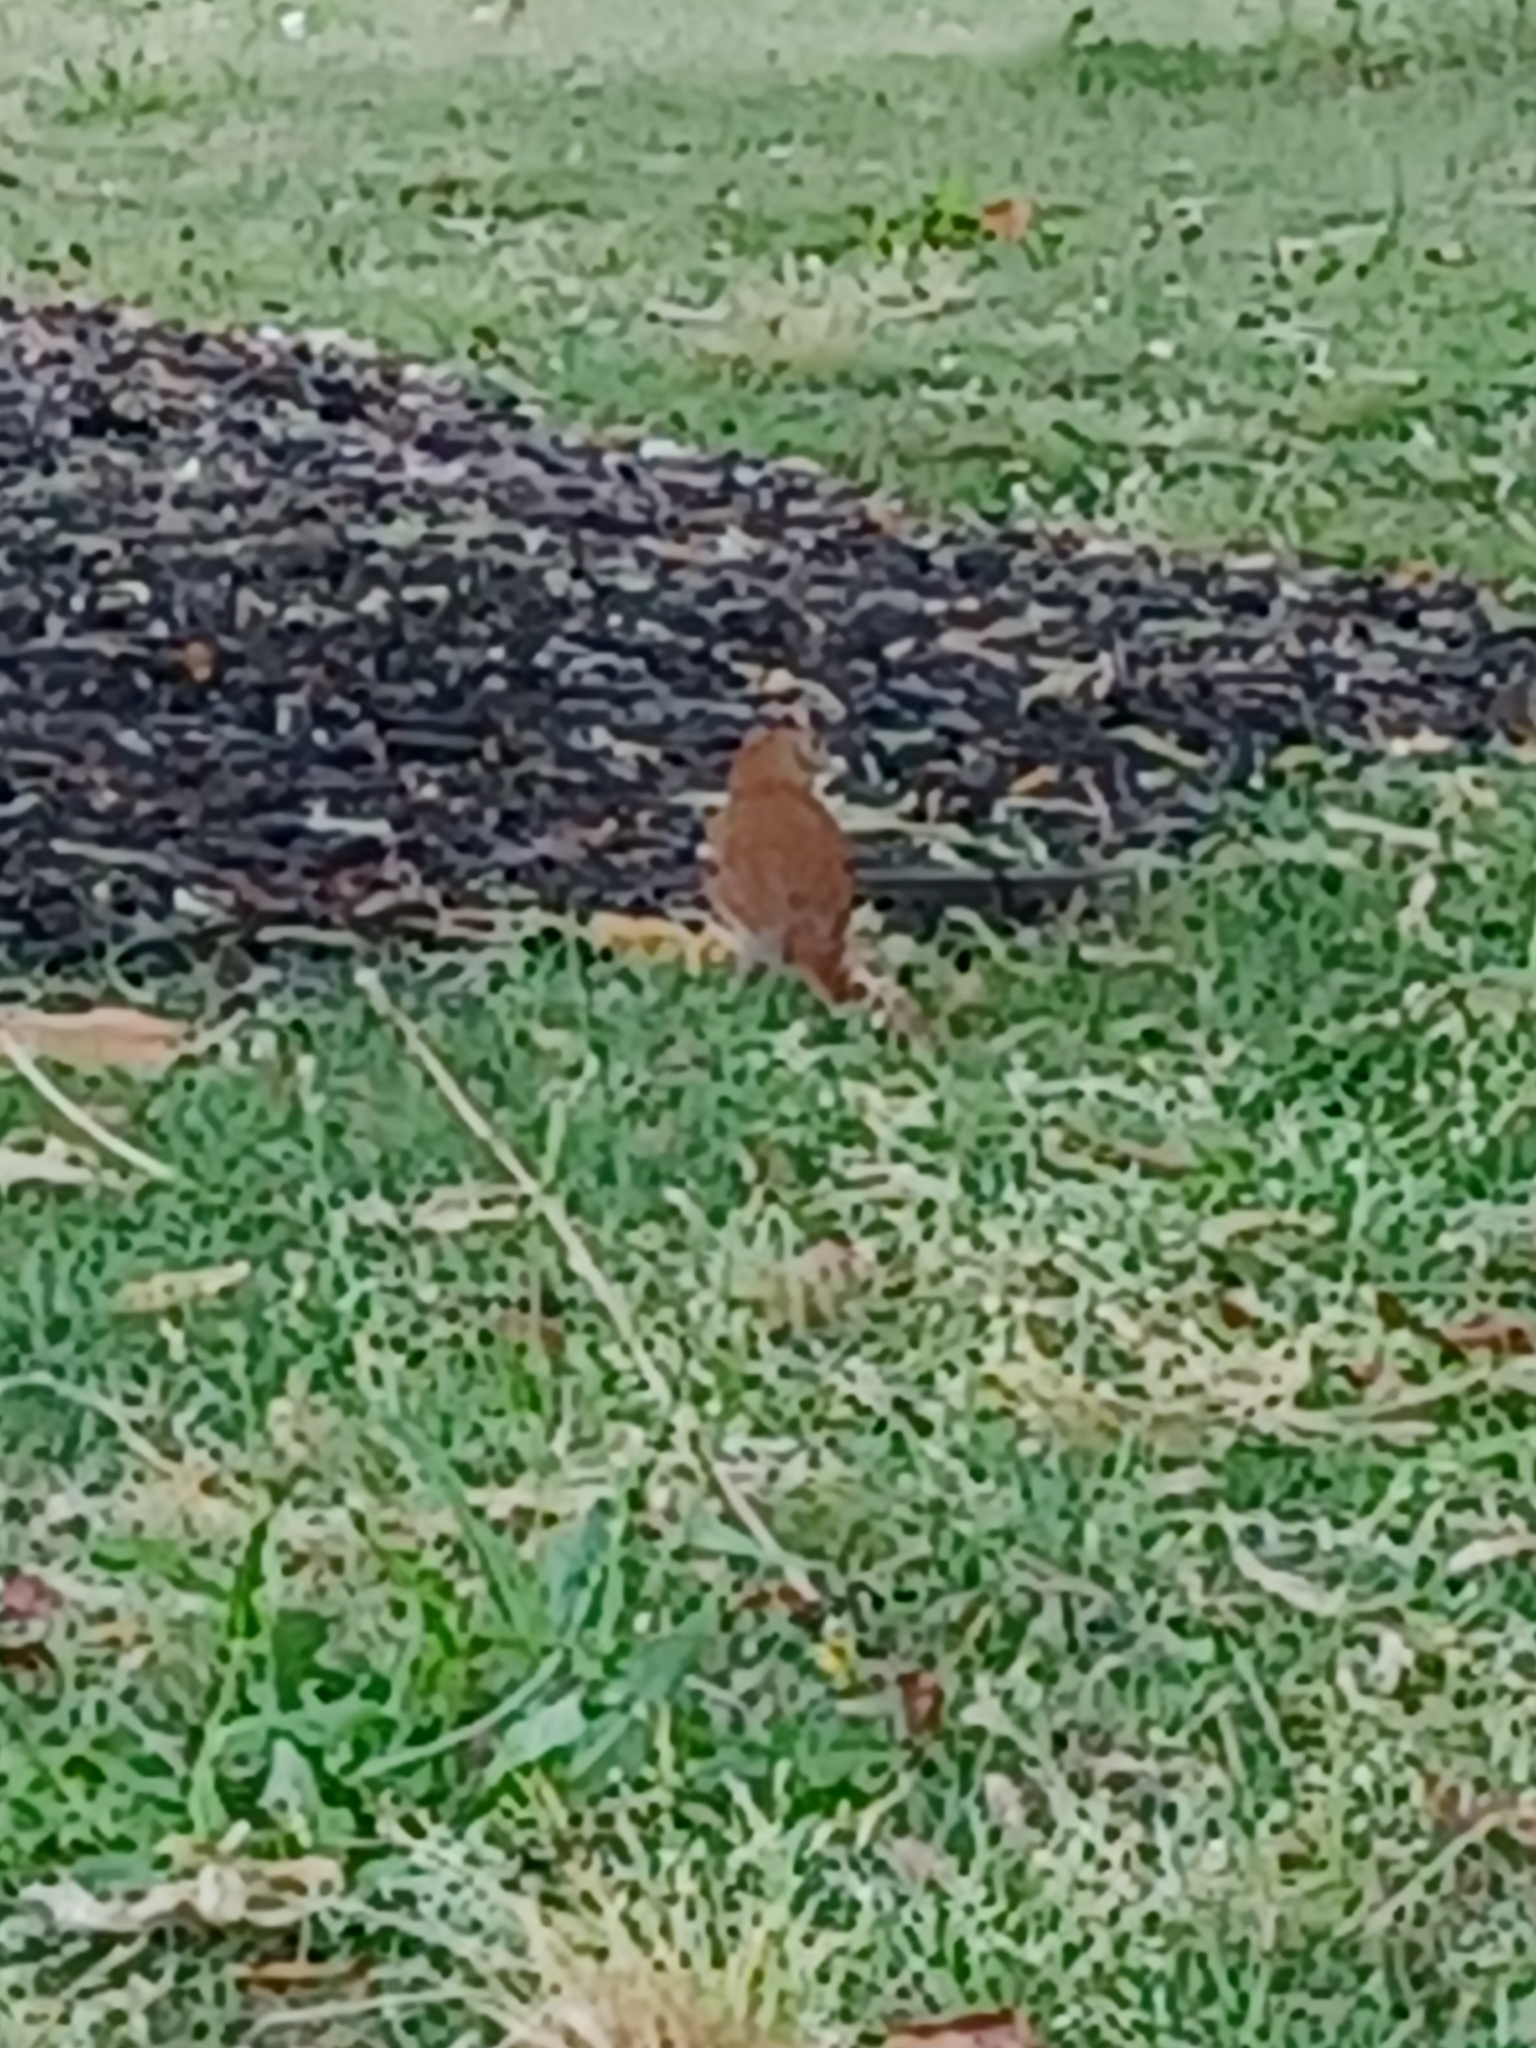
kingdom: Animalia
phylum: Chordata
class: Aves
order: Passeriformes
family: Mimidae
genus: Toxostoma
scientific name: Toxostoma rufum
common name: Brown thrasher
